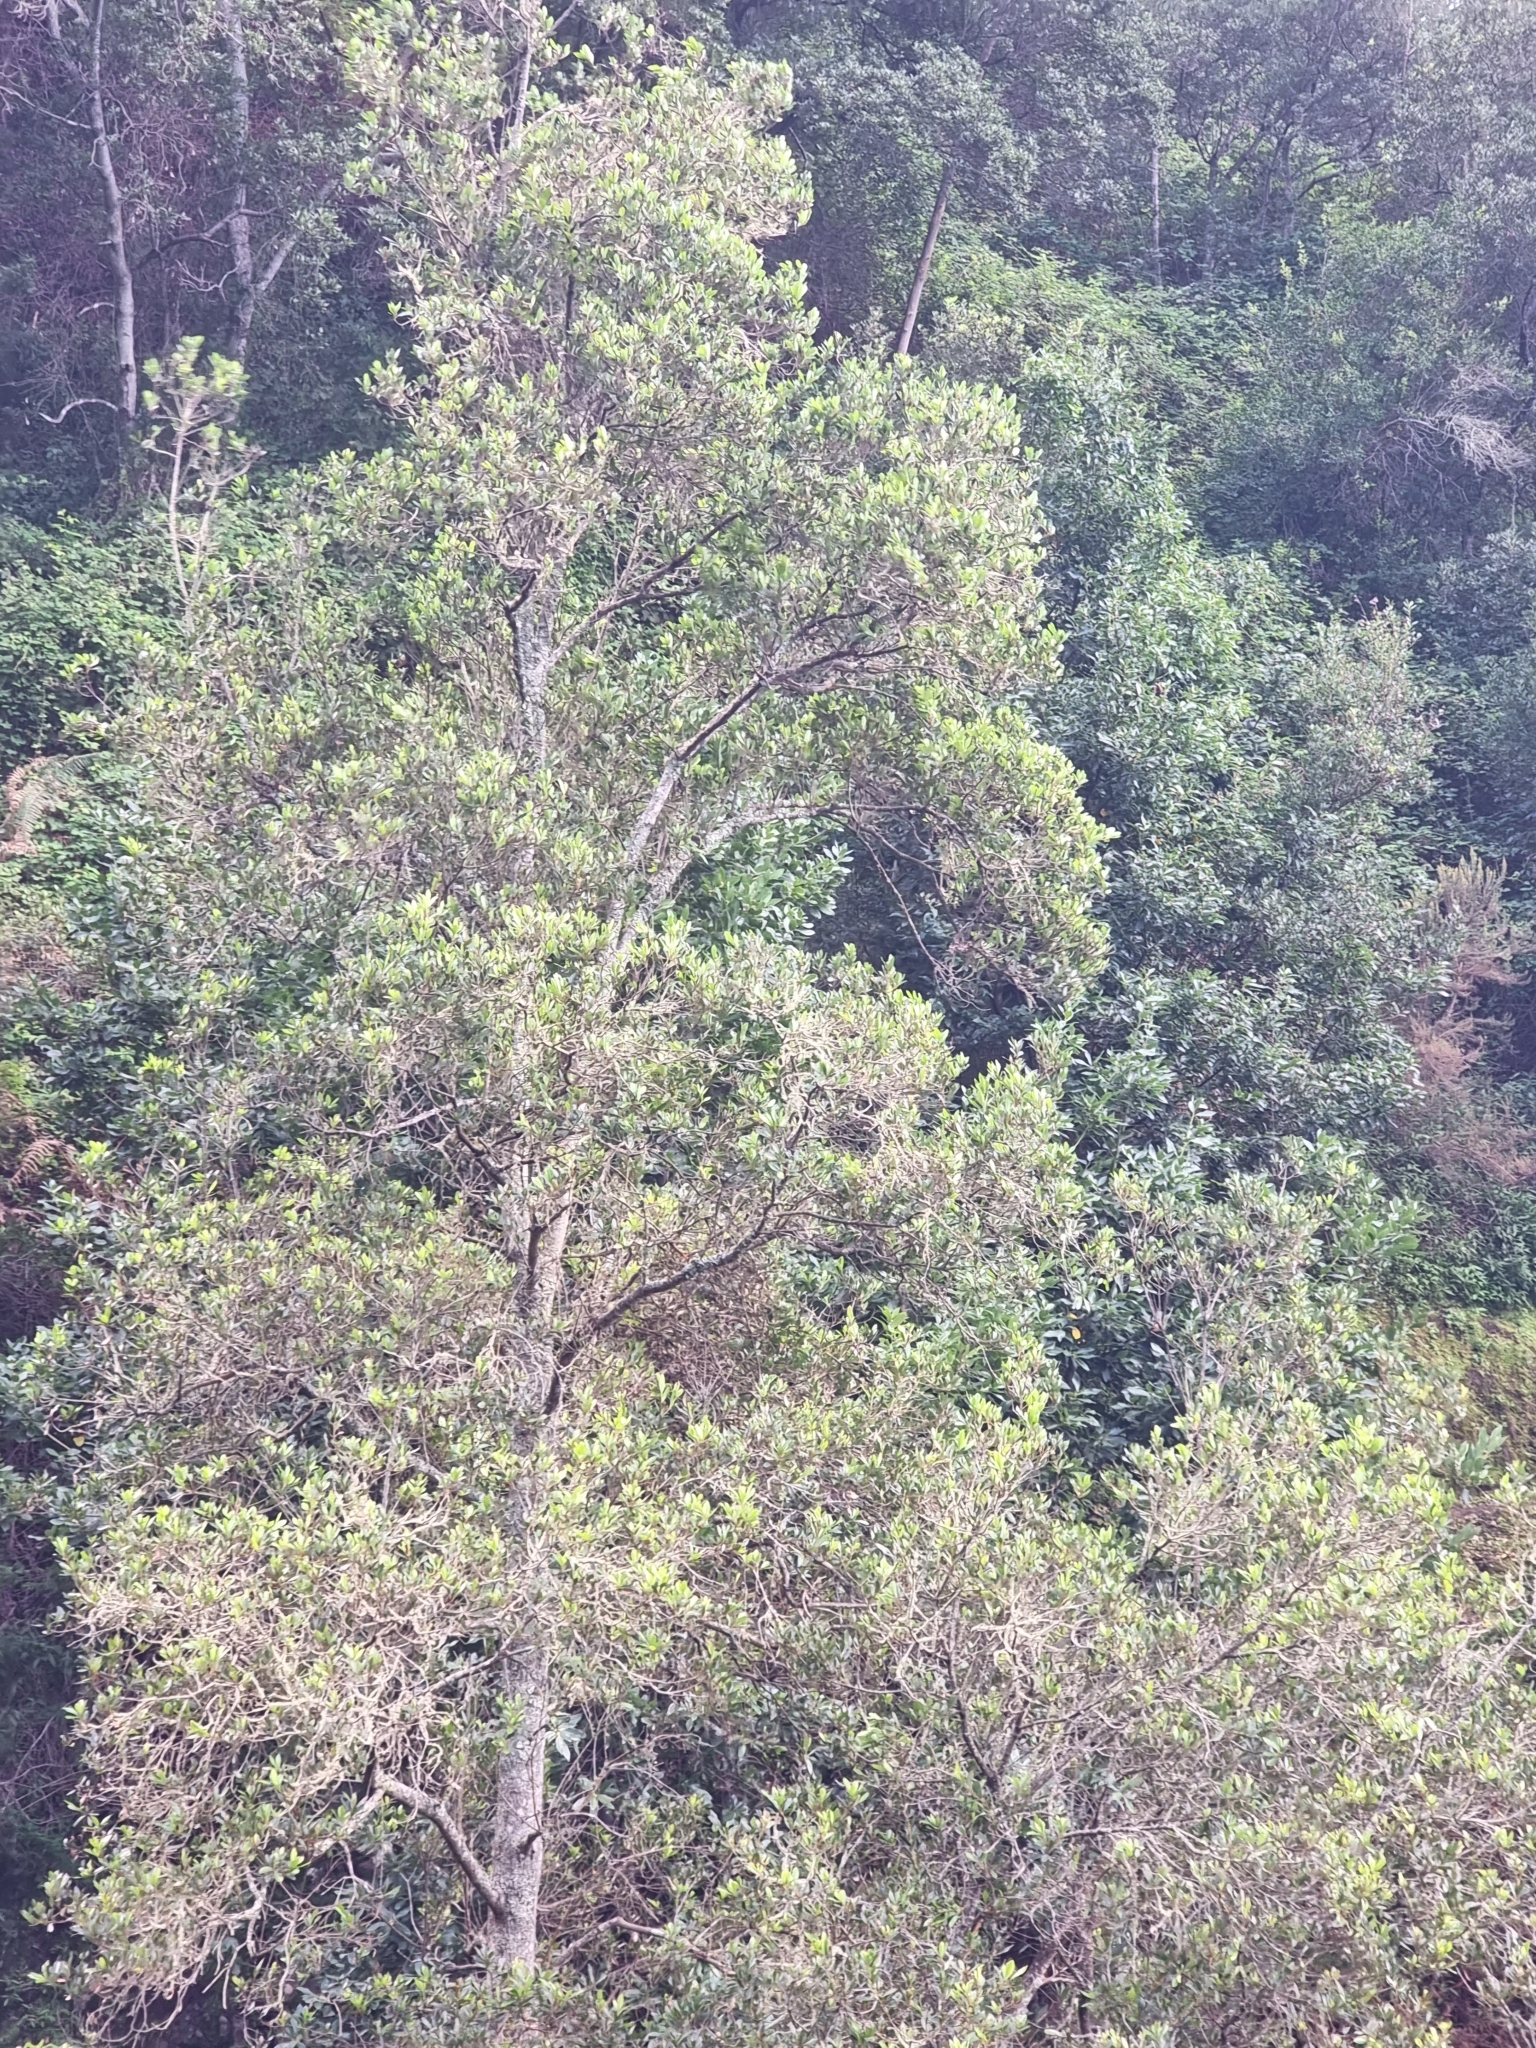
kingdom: Plantae
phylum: Tracheophyta
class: Magnoliopsida
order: Fagales
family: Myricaceae
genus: Morella
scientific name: Morella faya
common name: Firetree
